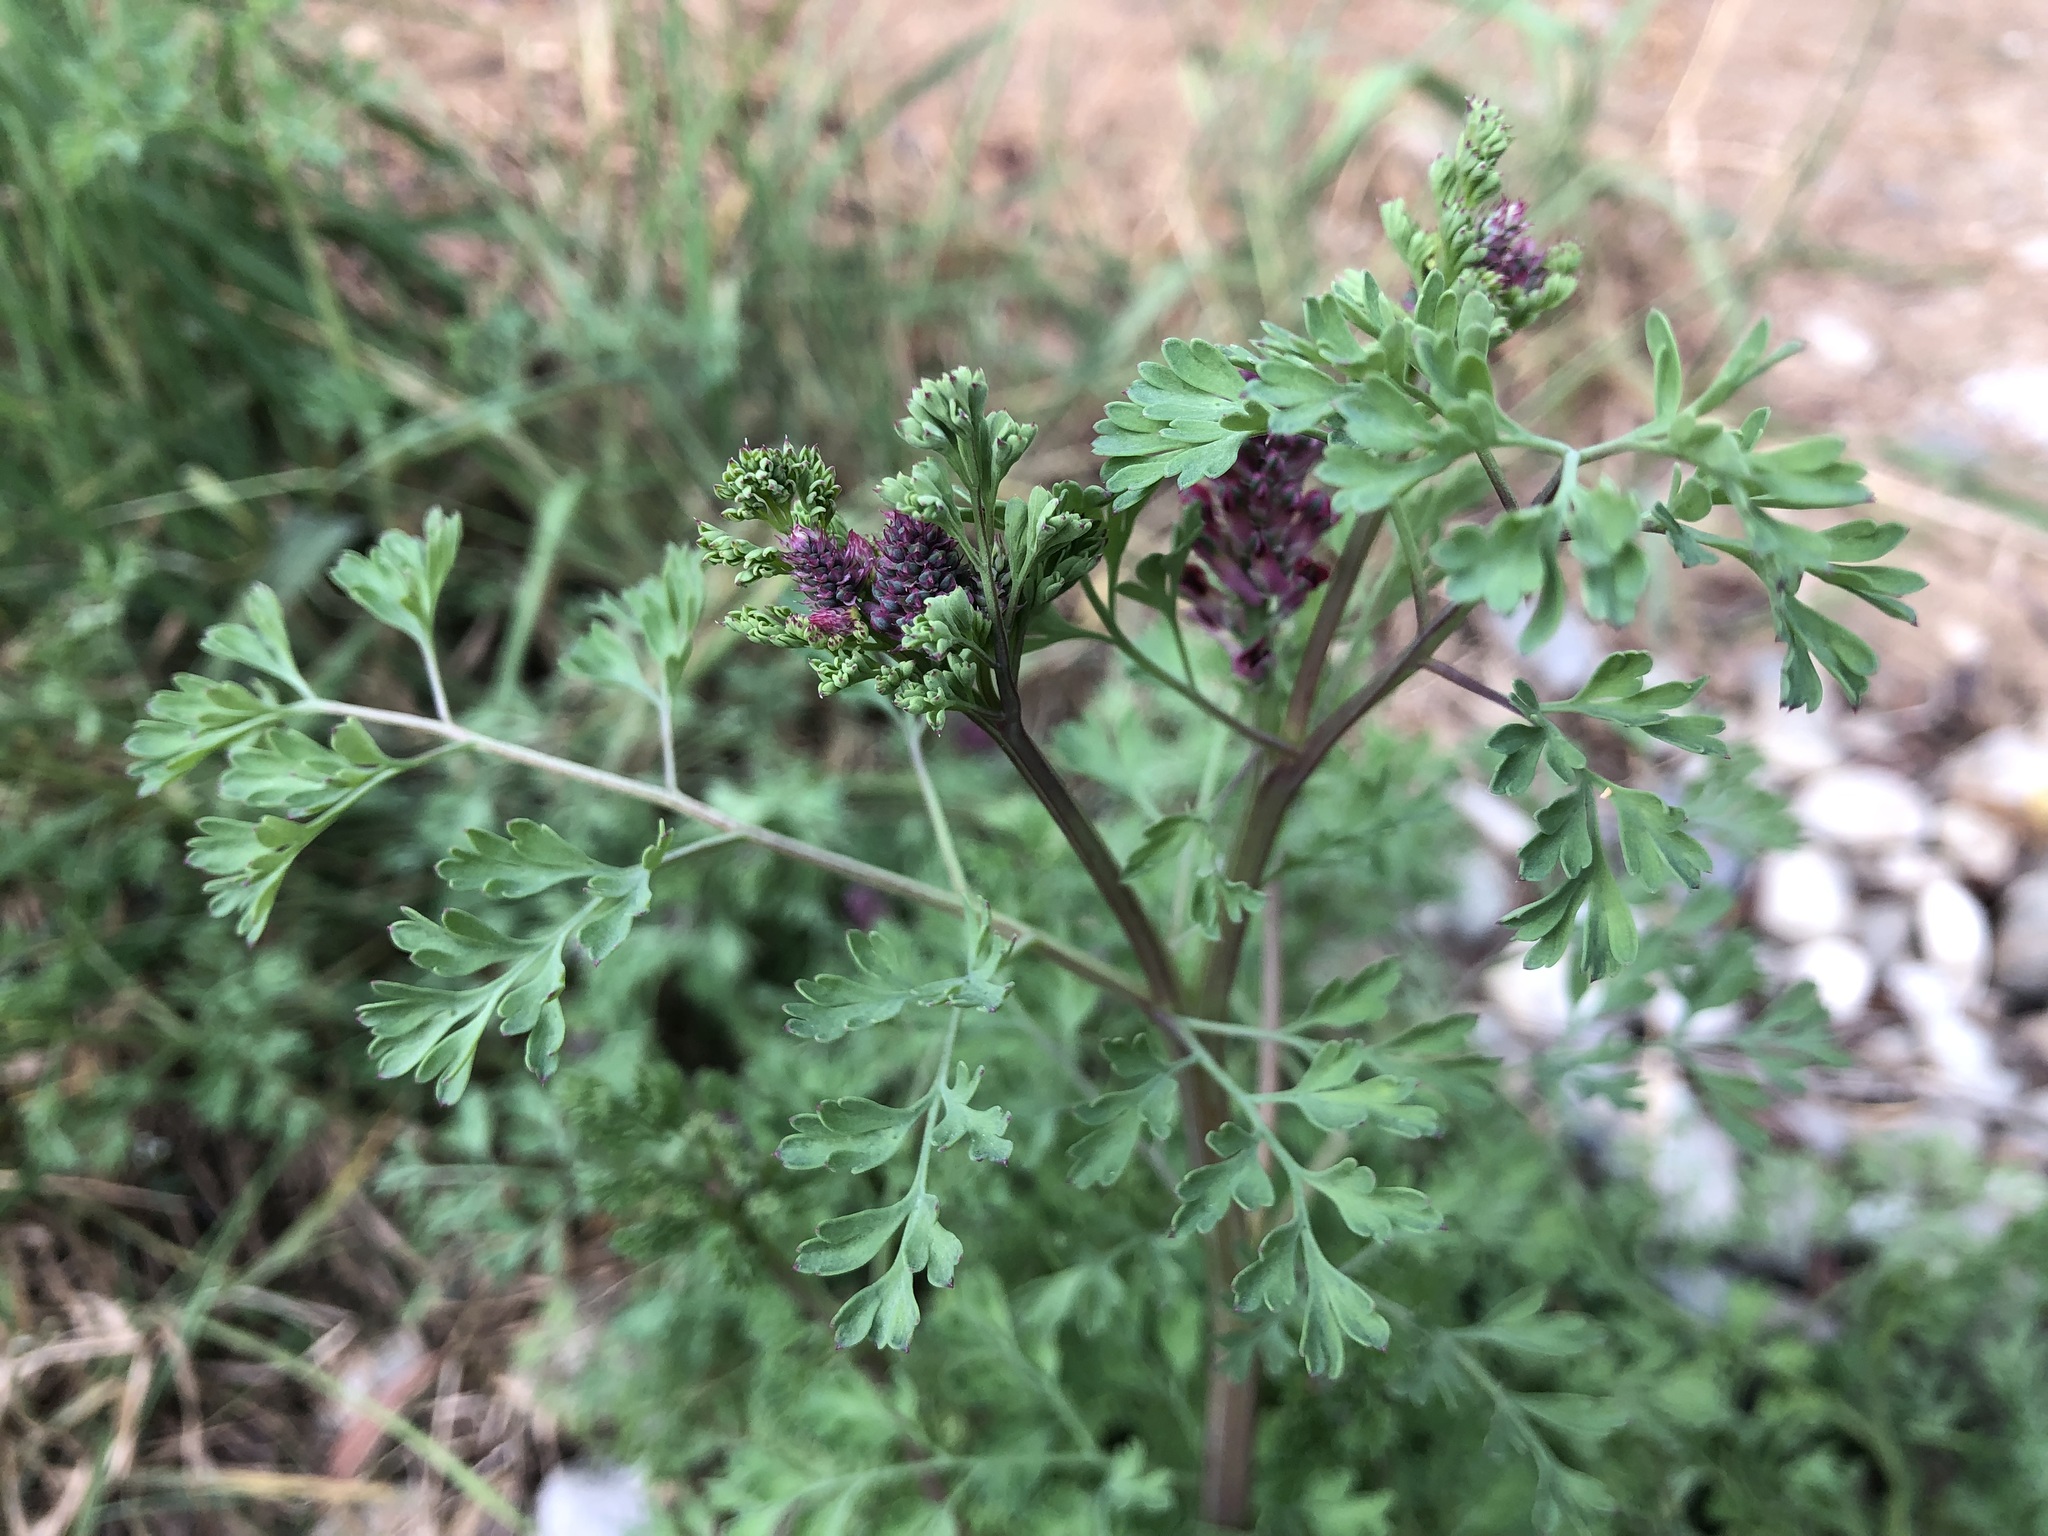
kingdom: Plantae
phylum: Tracheophyta
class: Magnoliopsida
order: Ranunculales
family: Papaveraceae
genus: Fumaria
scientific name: Fumaria officinalis
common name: Common fumitory
